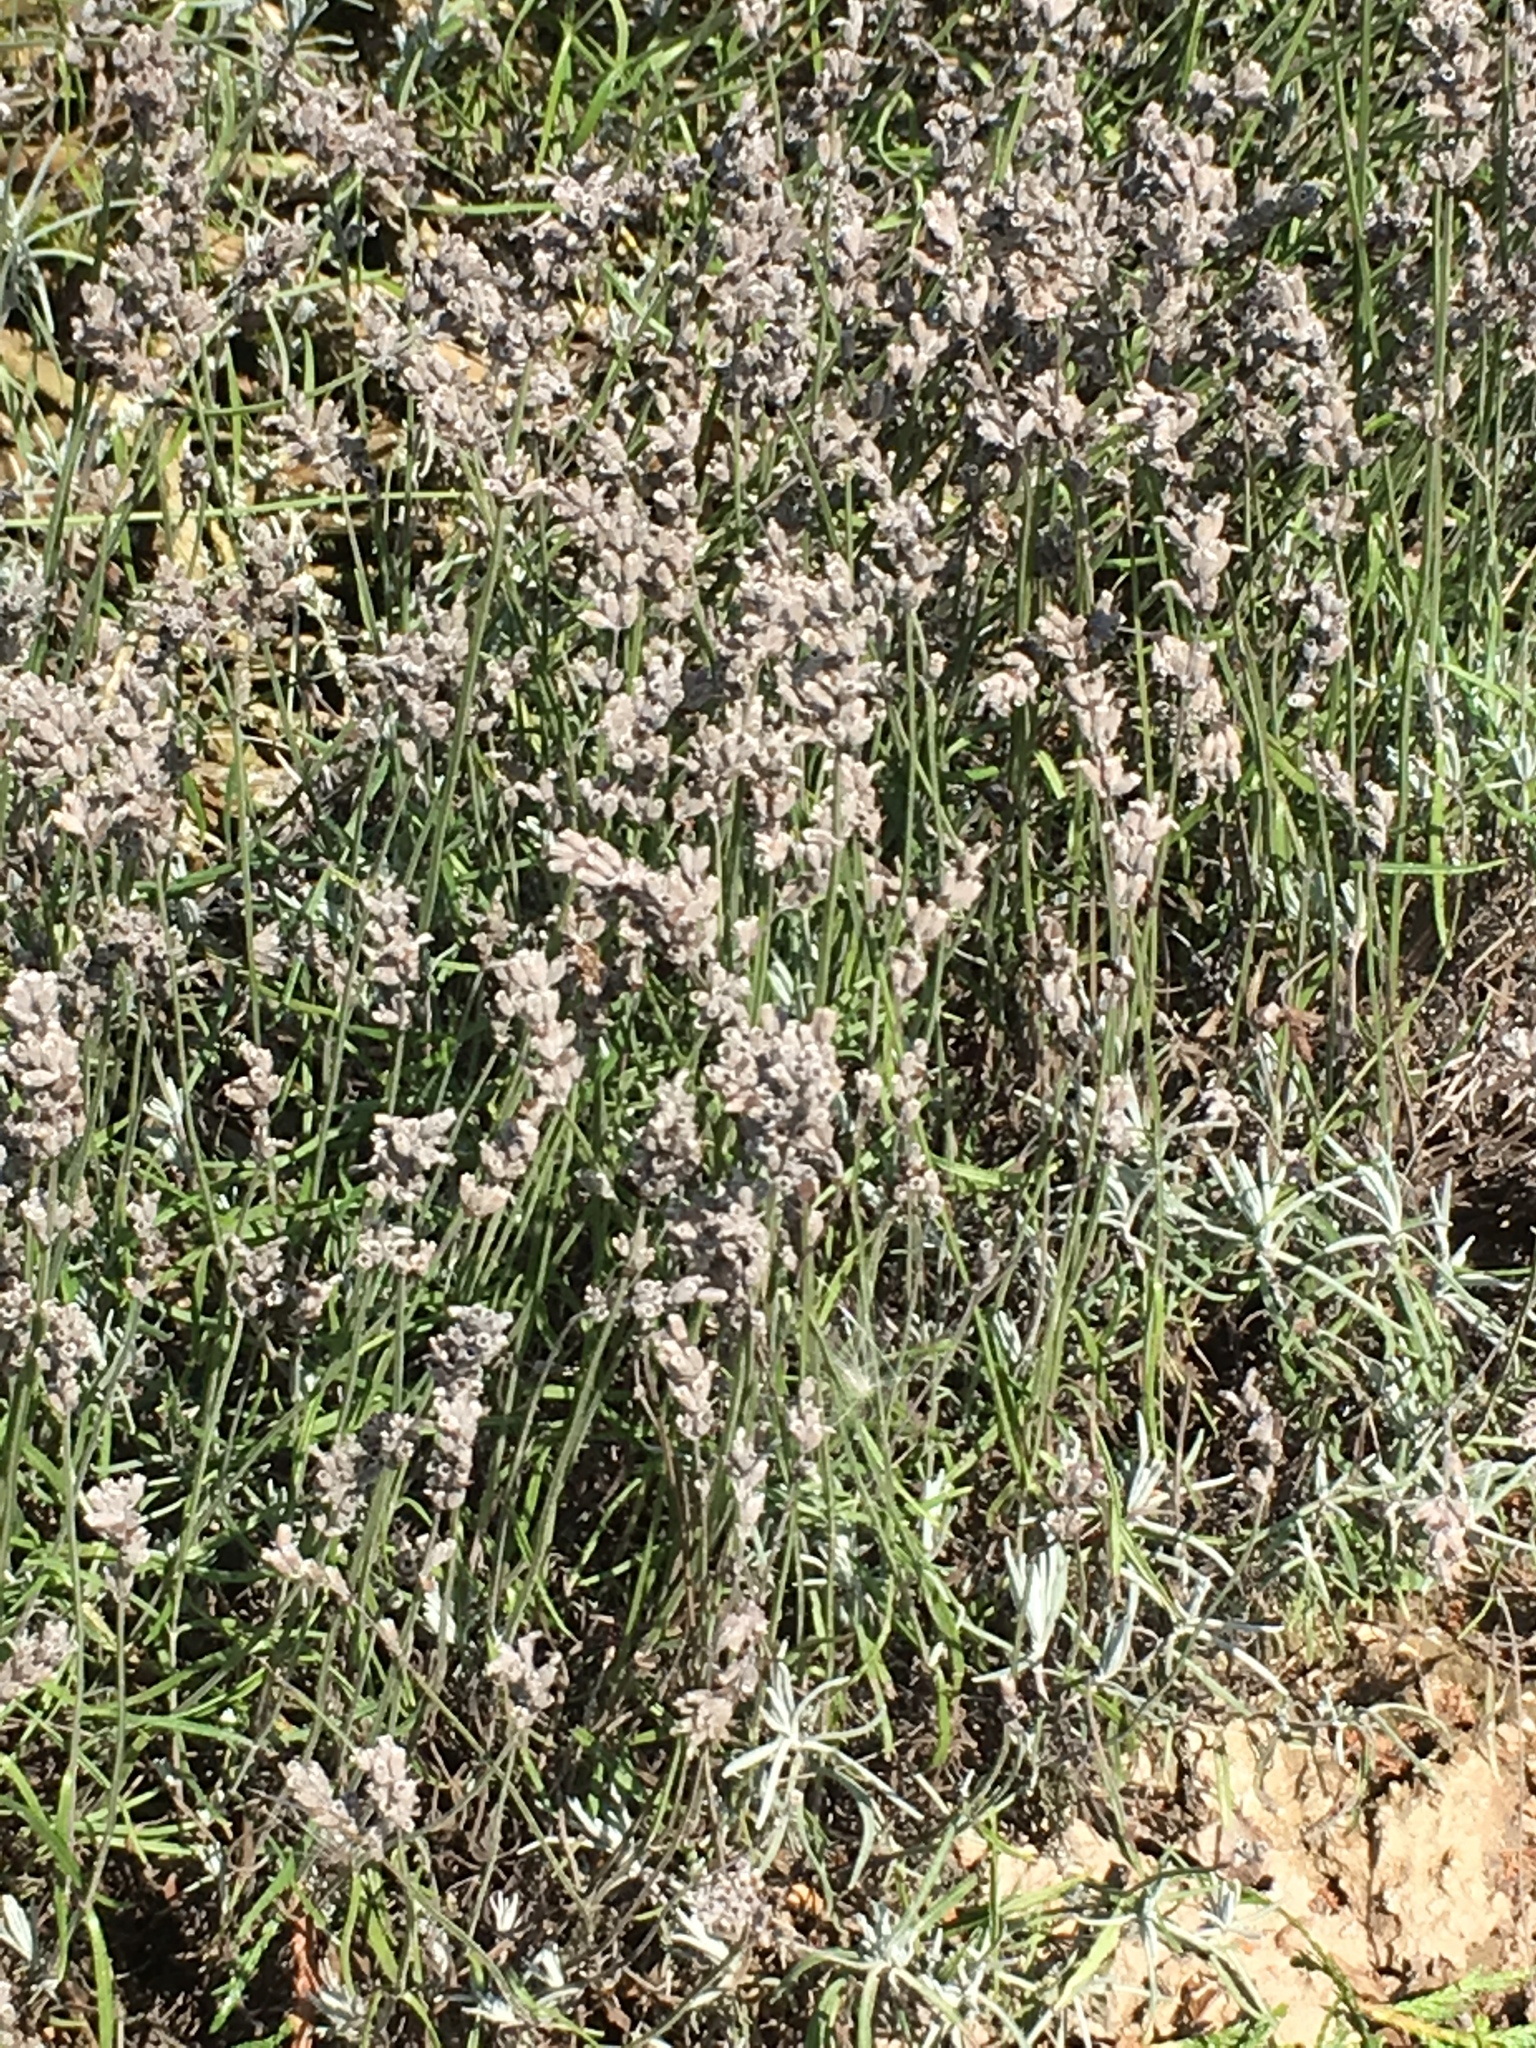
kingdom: Plantae
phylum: Tracheophyta
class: Magnoliopsida
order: Lamiales
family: Lamiaceae
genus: Lavandula
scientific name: Lavandula angustifolia
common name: Garden lavender
